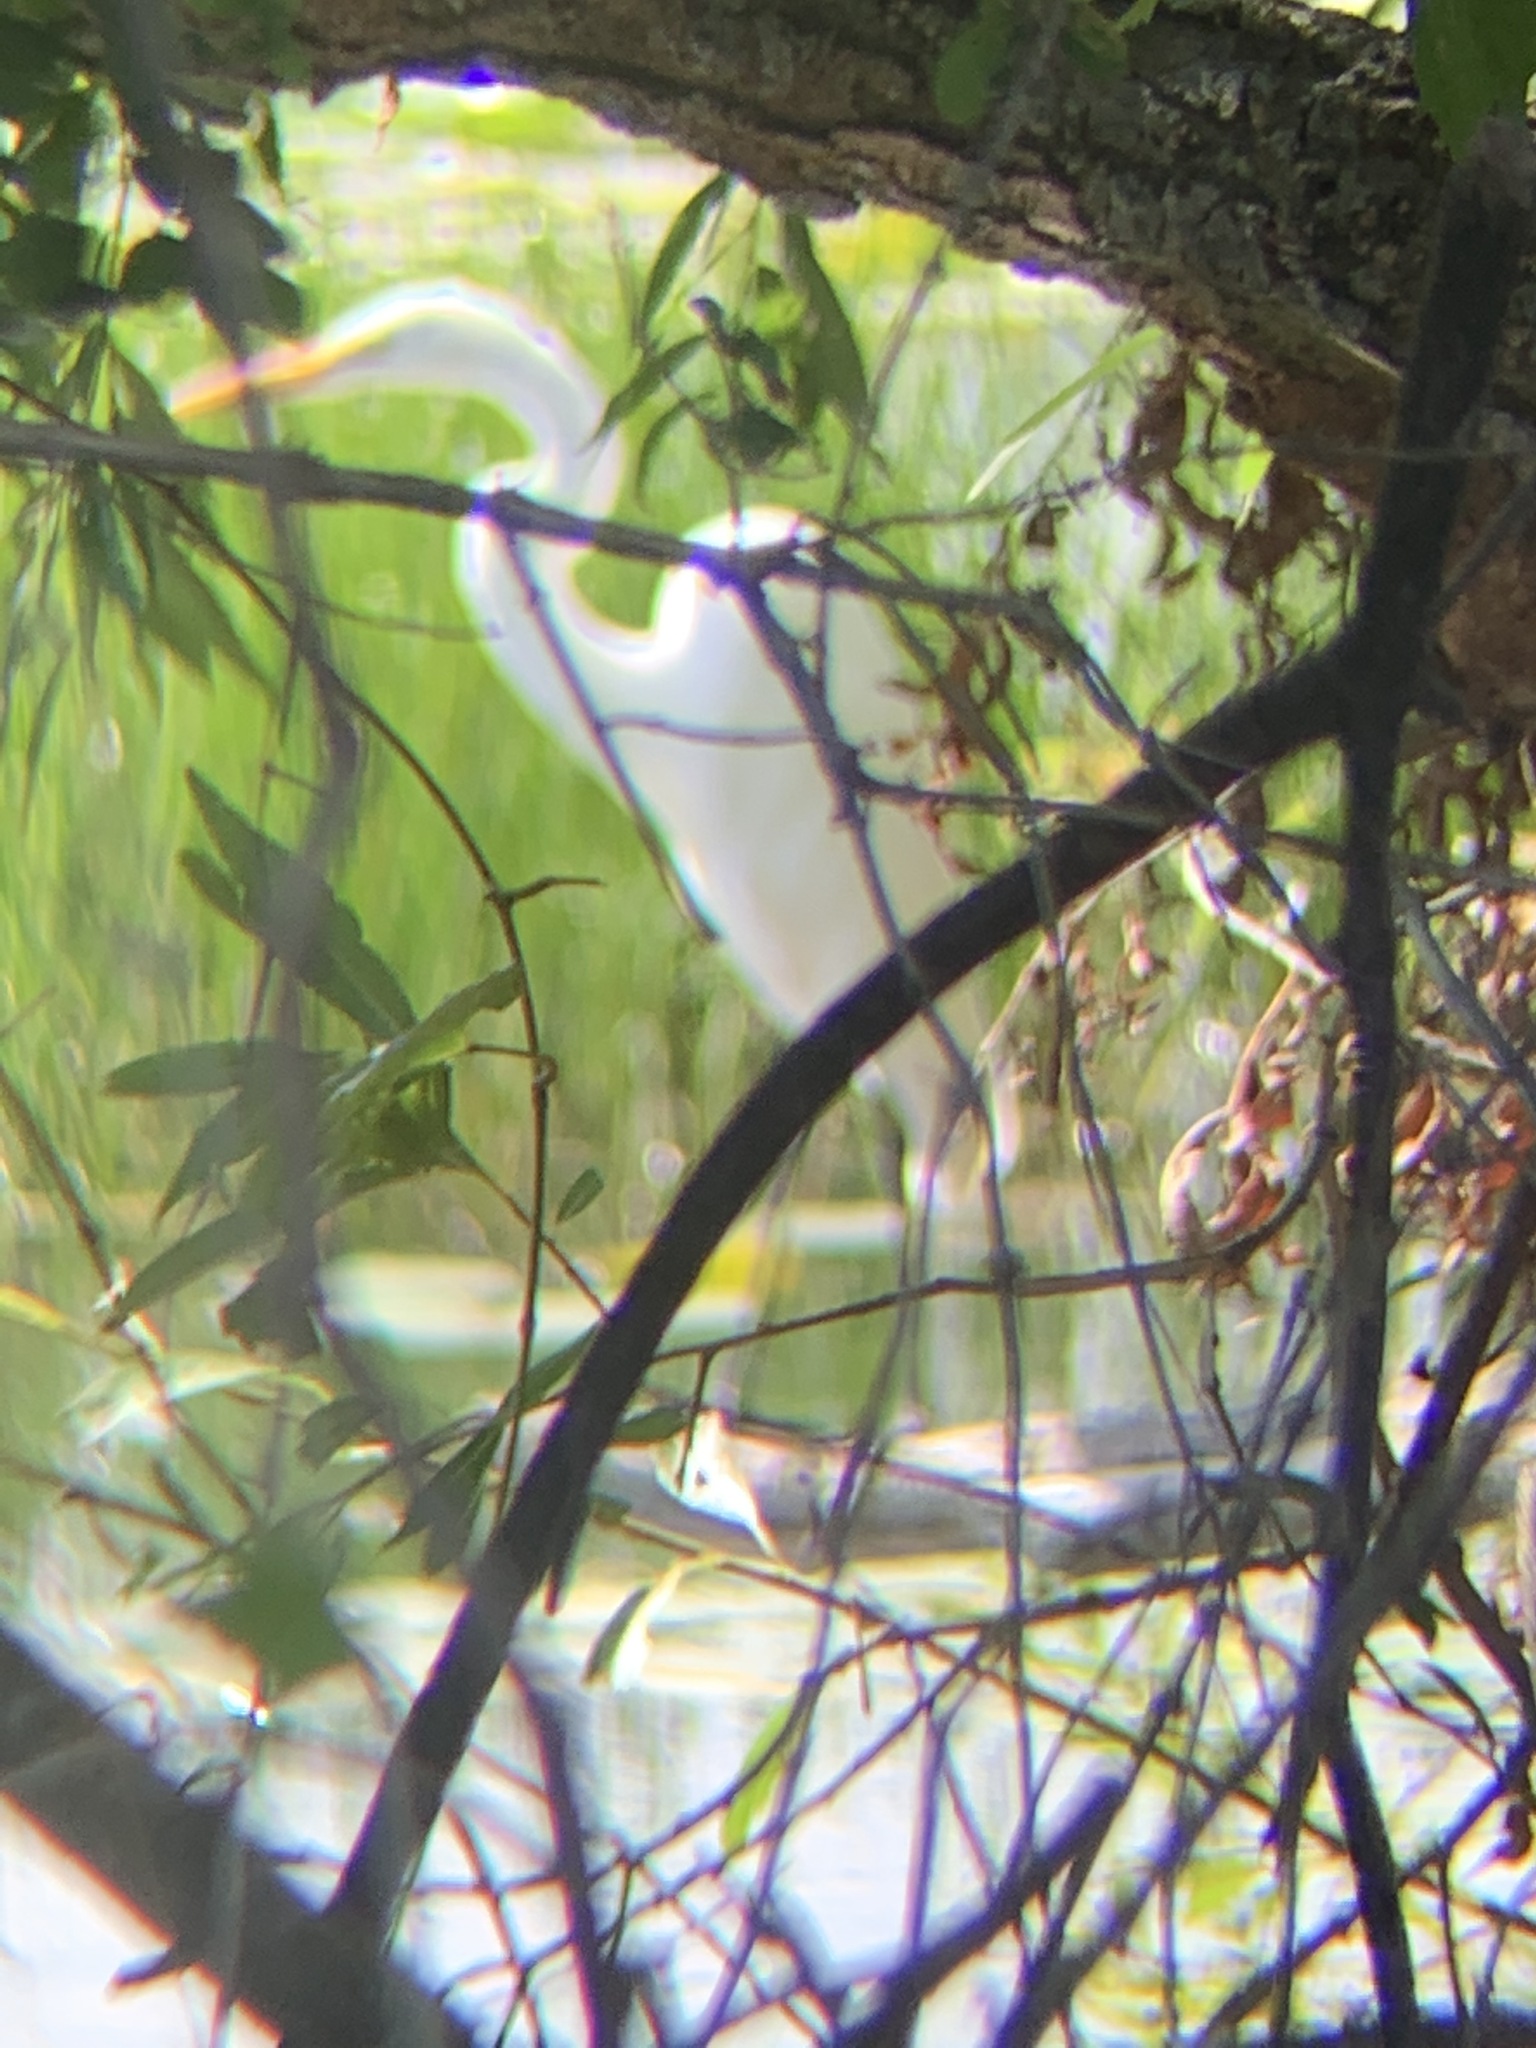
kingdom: Animalia
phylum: Chordata
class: Aves
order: Pelecaniformes
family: Ardeidae
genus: Ardea
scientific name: Ardea alba
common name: Great egret
